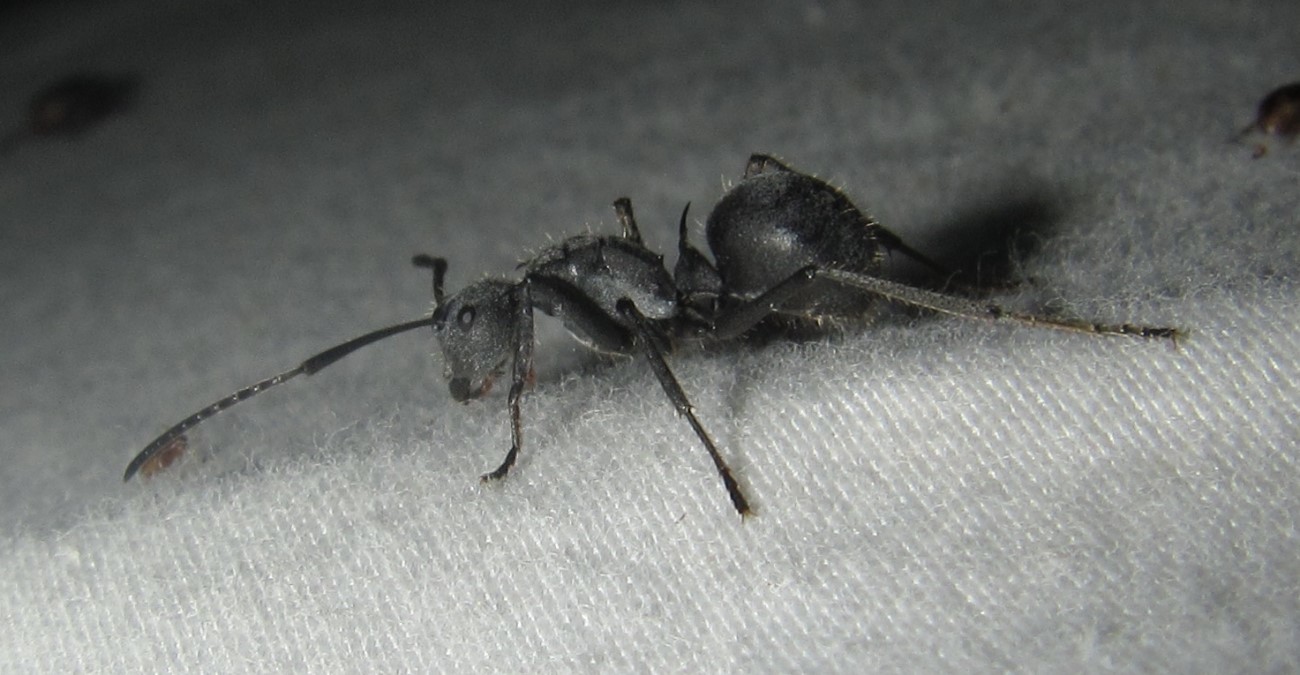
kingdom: Animalia
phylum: Arthropoda
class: Insecta
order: Hymenoptera
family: Formicidae
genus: Polyrhachis
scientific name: Polyrhachis schistacea
